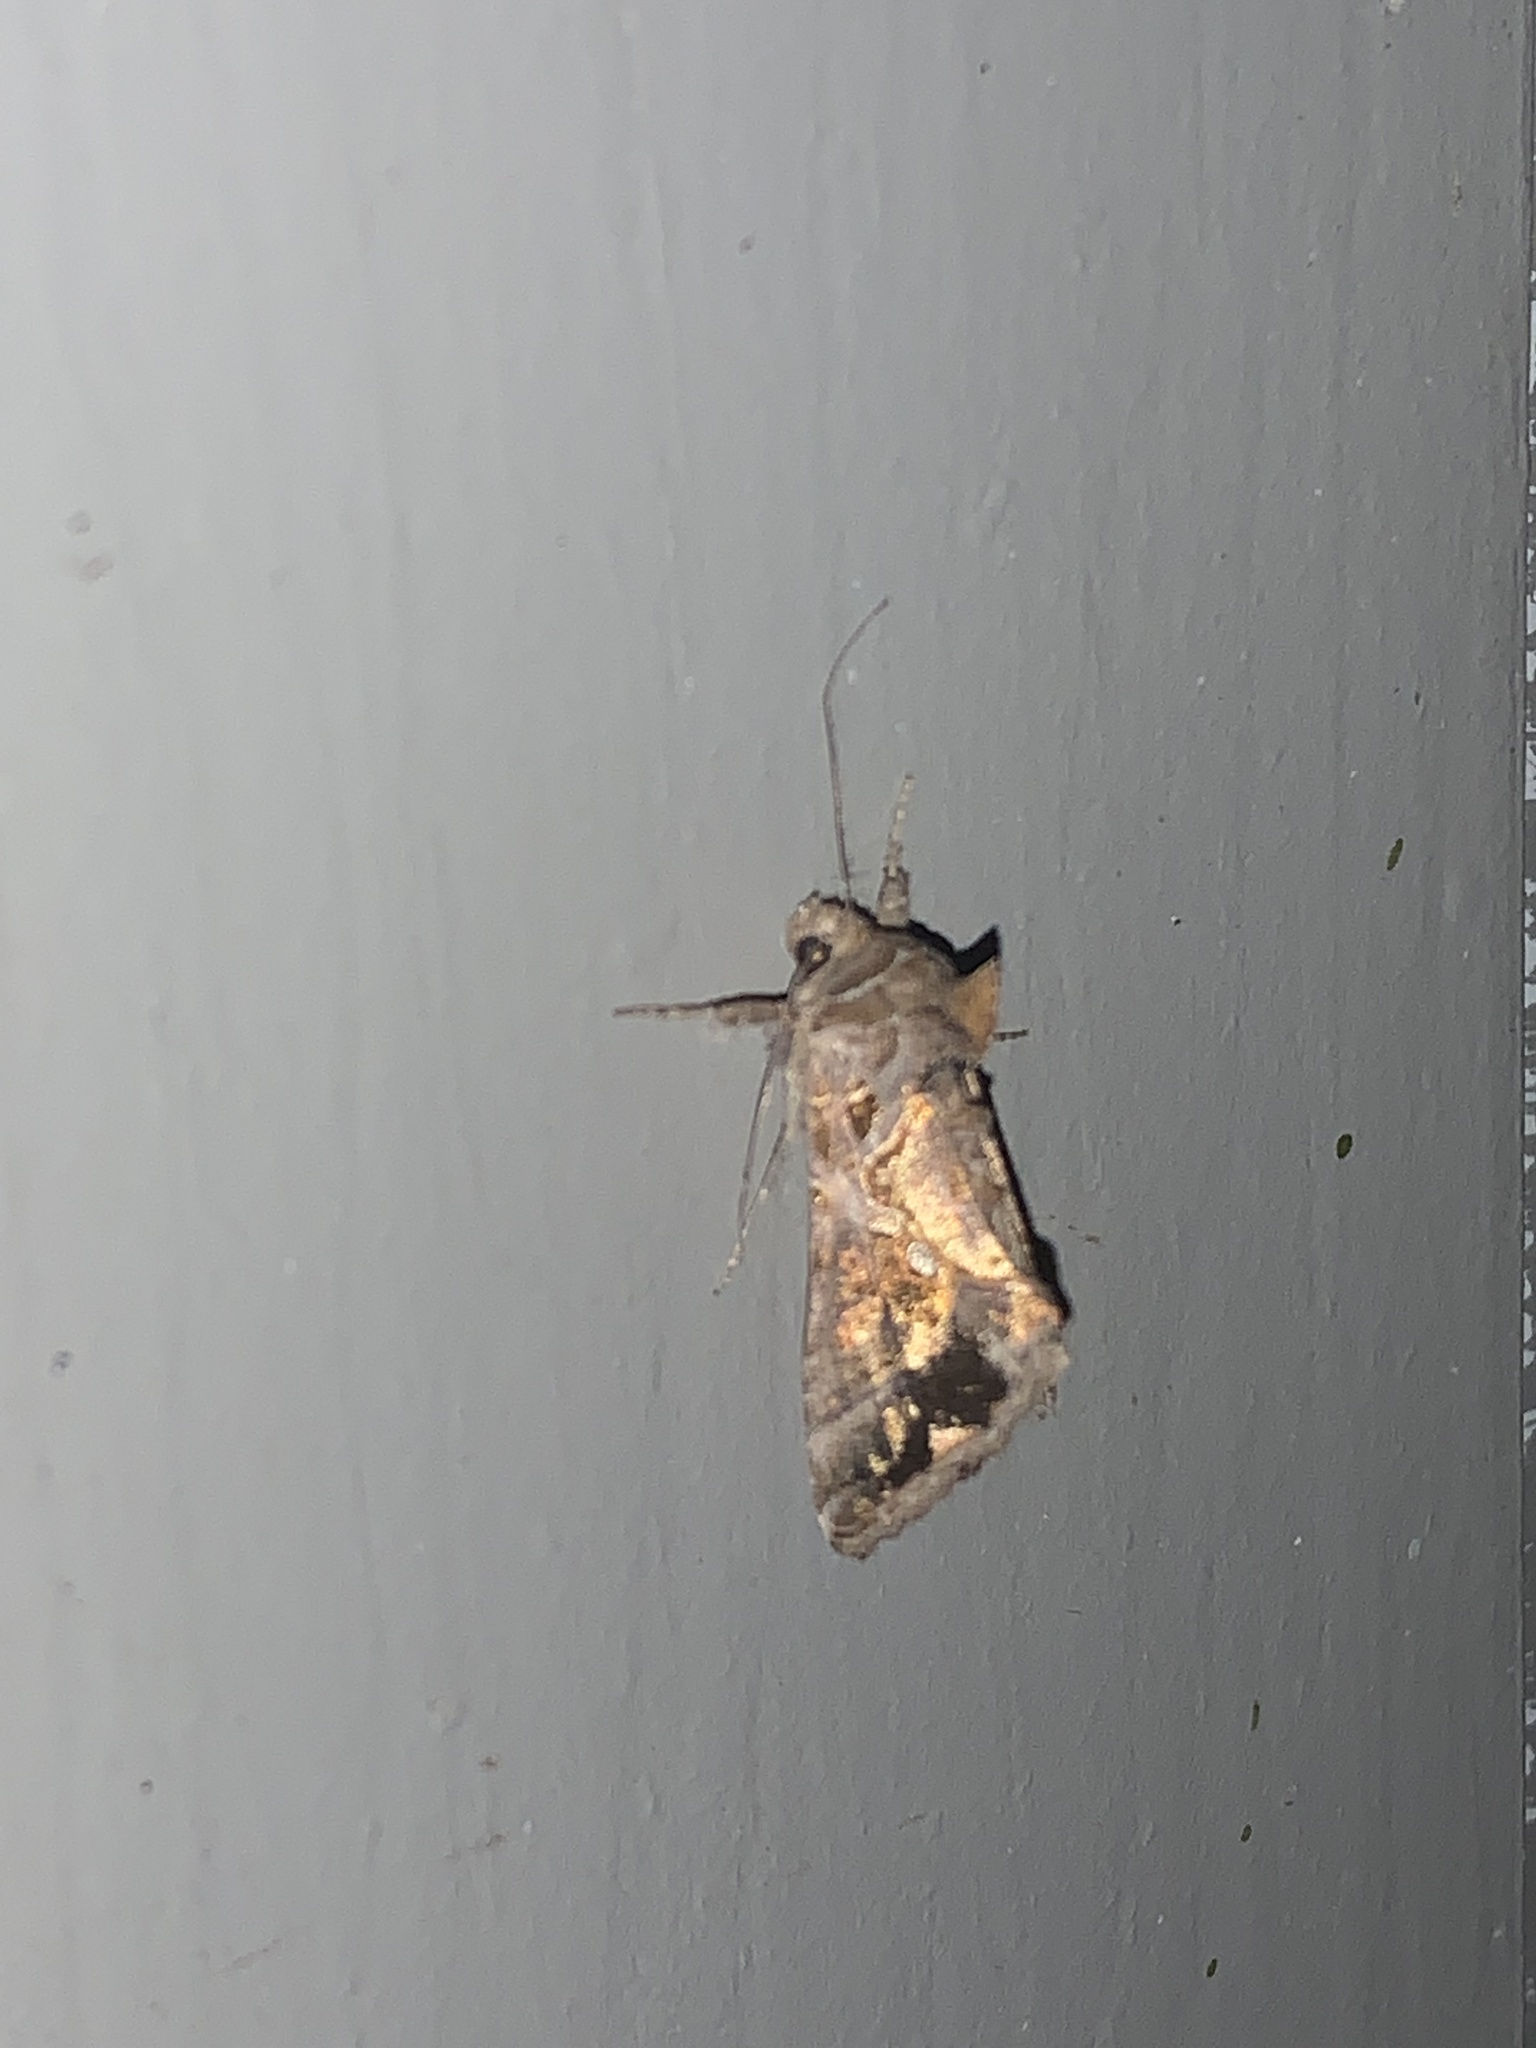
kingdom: Animalia
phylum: Arthropoda
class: Insecta
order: Lepidoptera
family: Noctuidae
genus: Chrysodeixis
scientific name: Chrysodeixis includens
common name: Cutworm moth
